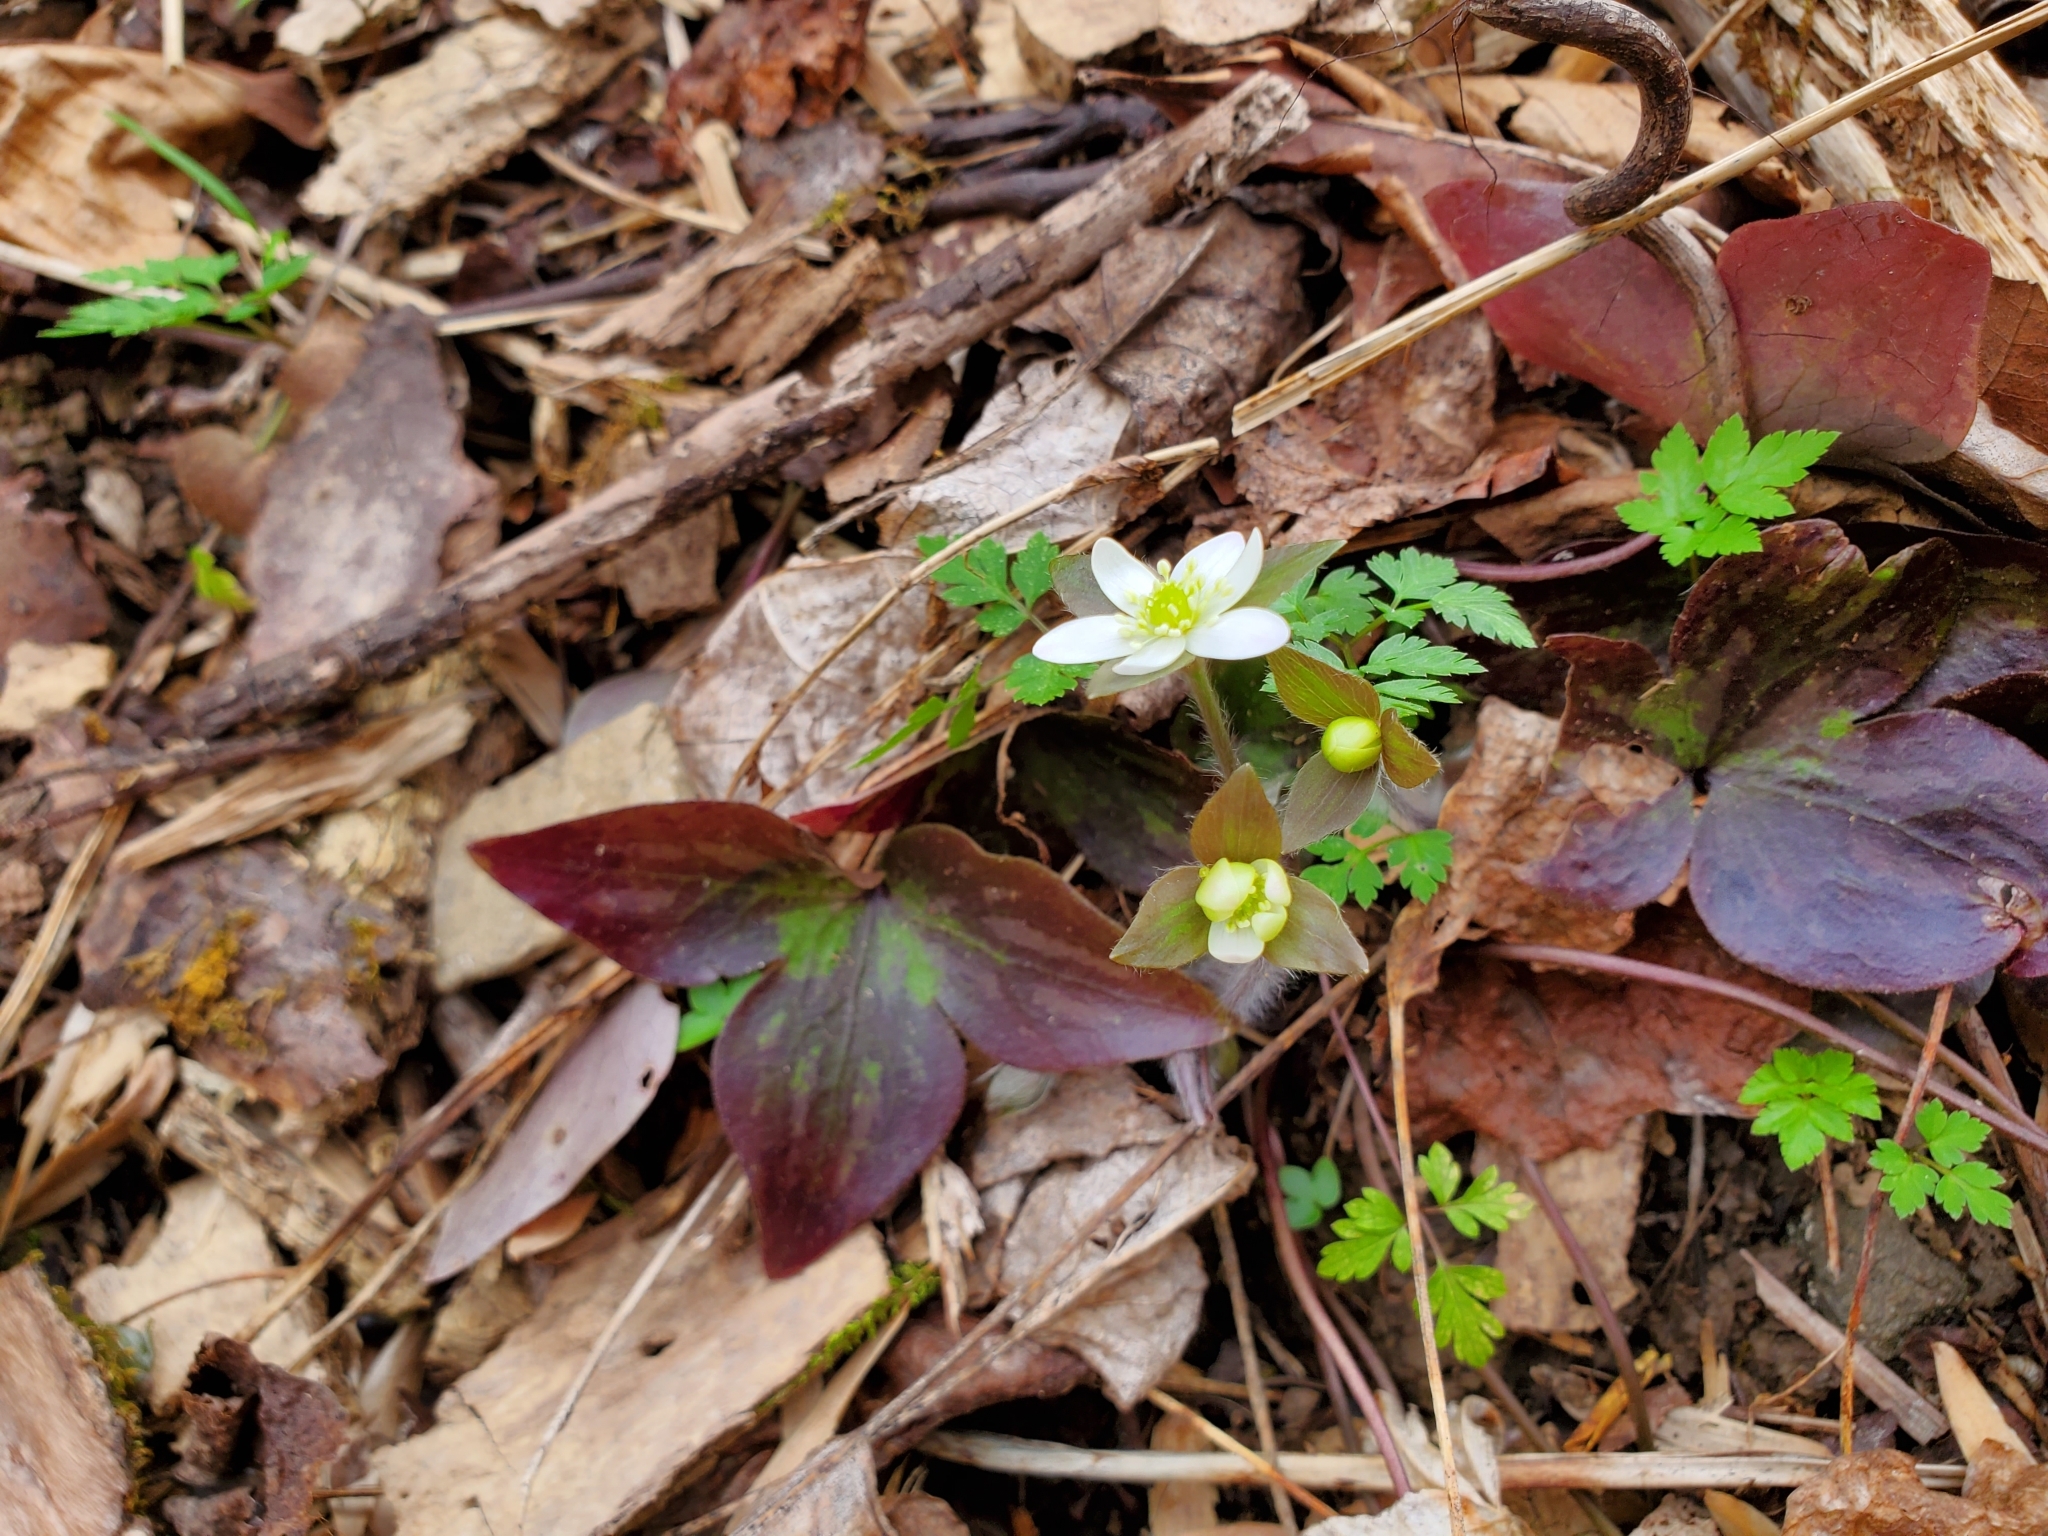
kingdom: Plantae
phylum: Tracheophyta
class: Magnoliopsida
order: Ranunculales
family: Ranunculaceae
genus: Hepatica
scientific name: Hepatica acutiloba
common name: Sharp-lobed hepatica
